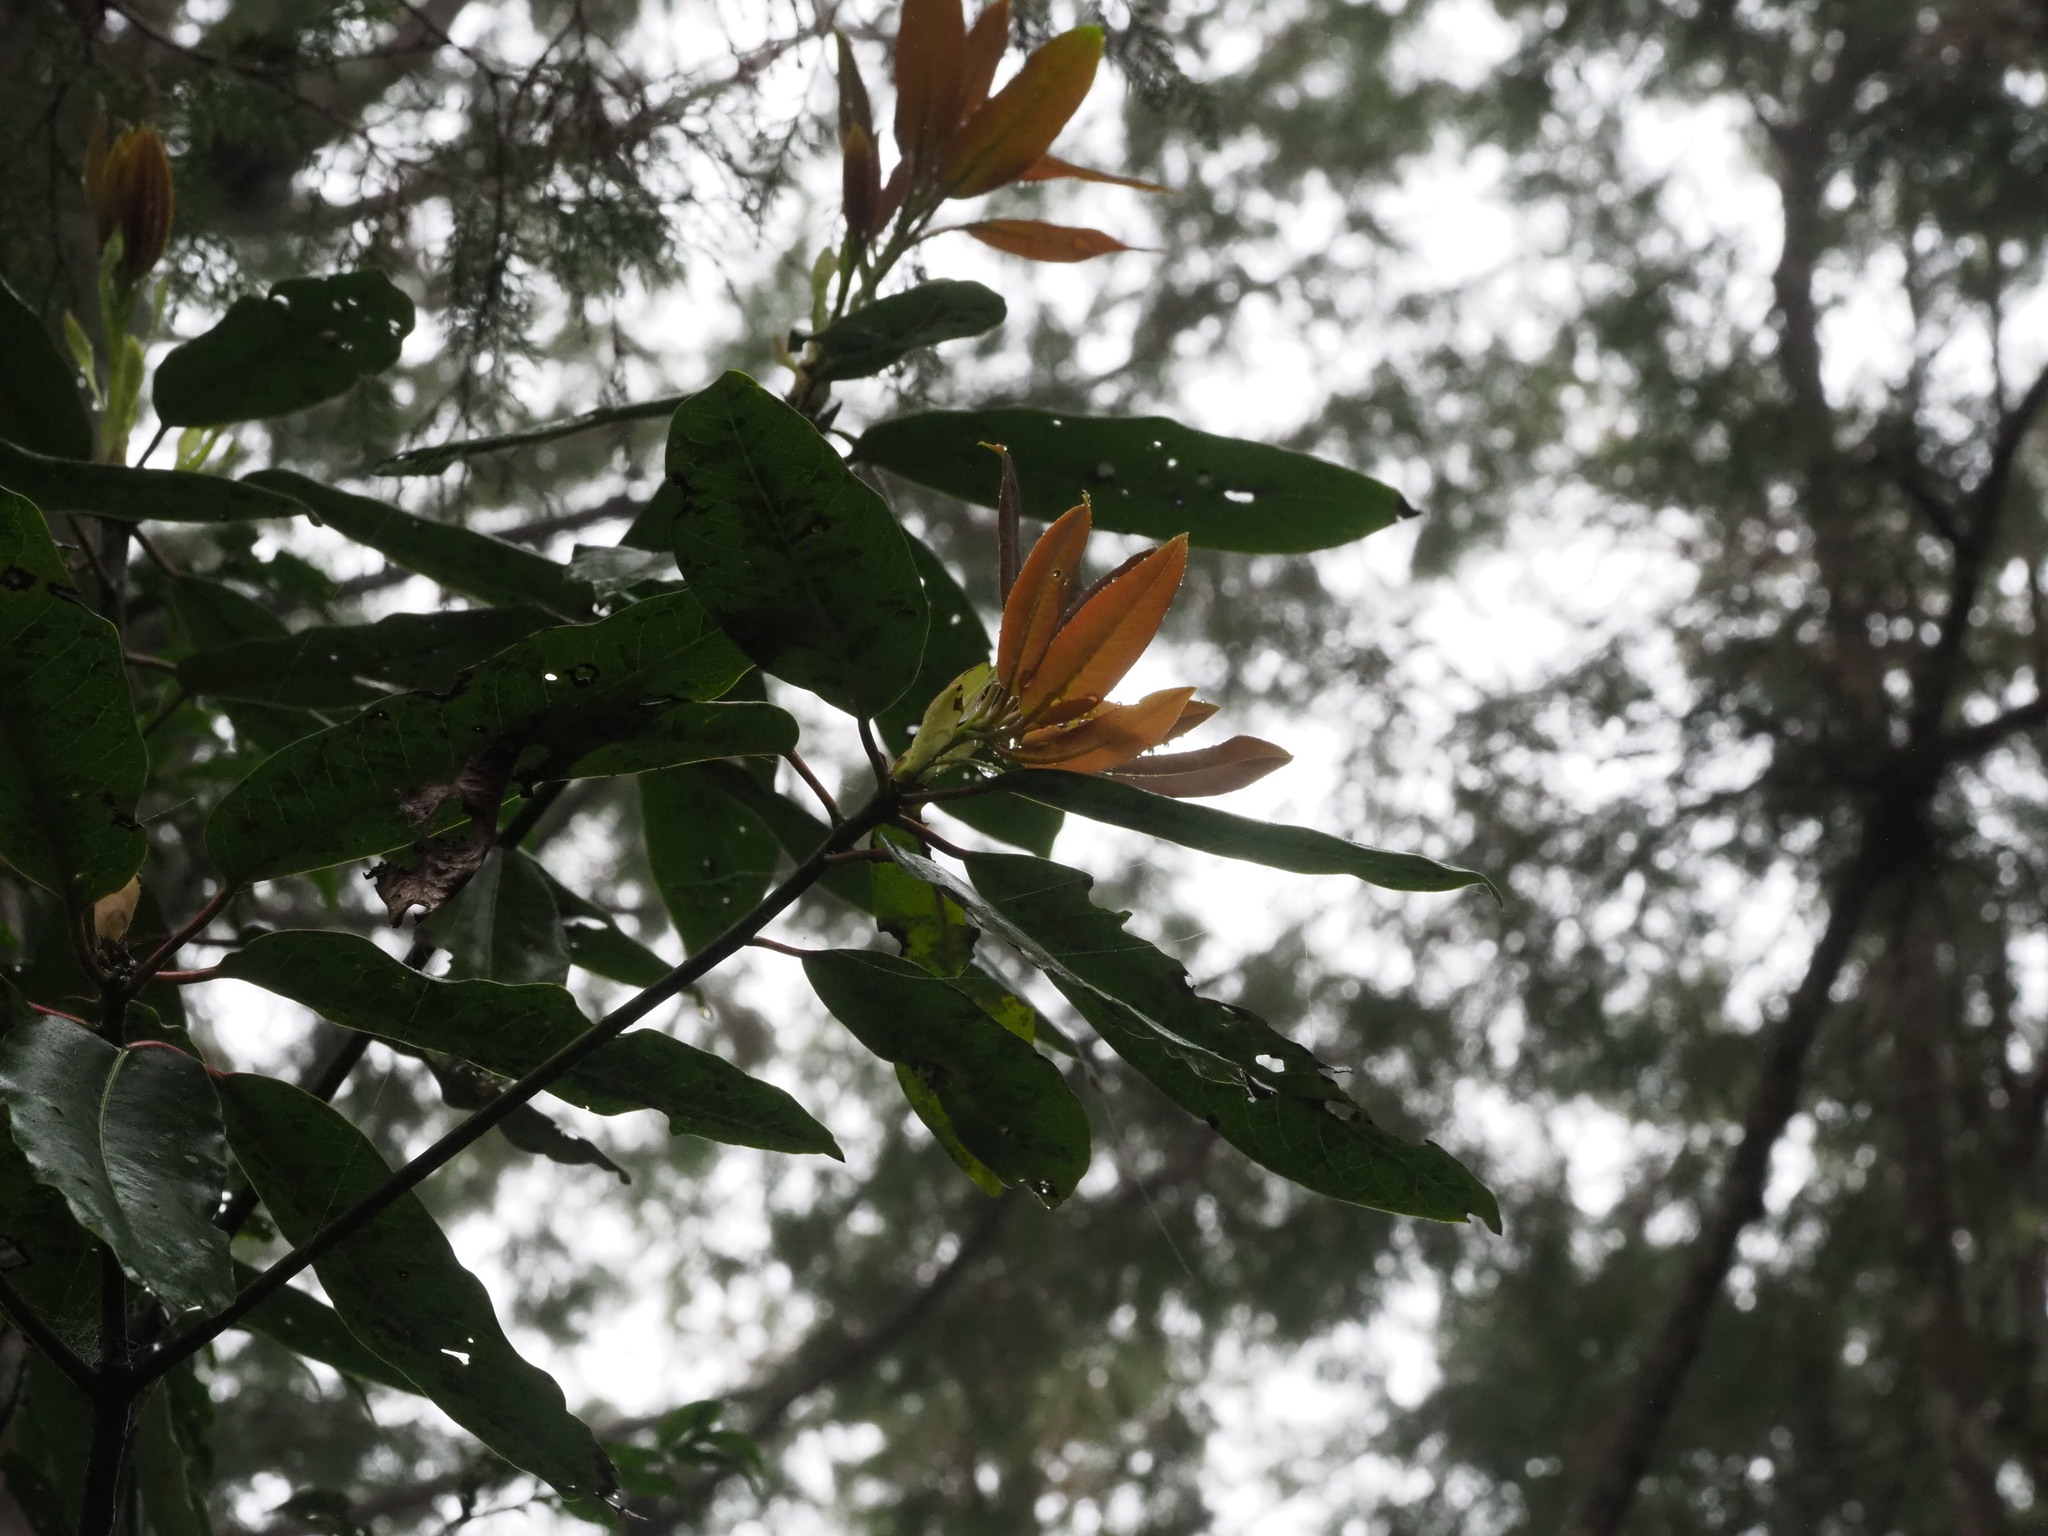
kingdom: Plantae
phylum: Tracheophyta
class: Magnoliopsida
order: Saxifragales
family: Daphniphyllaceae
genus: Daphniphyllum
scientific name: Daphniphyllum
